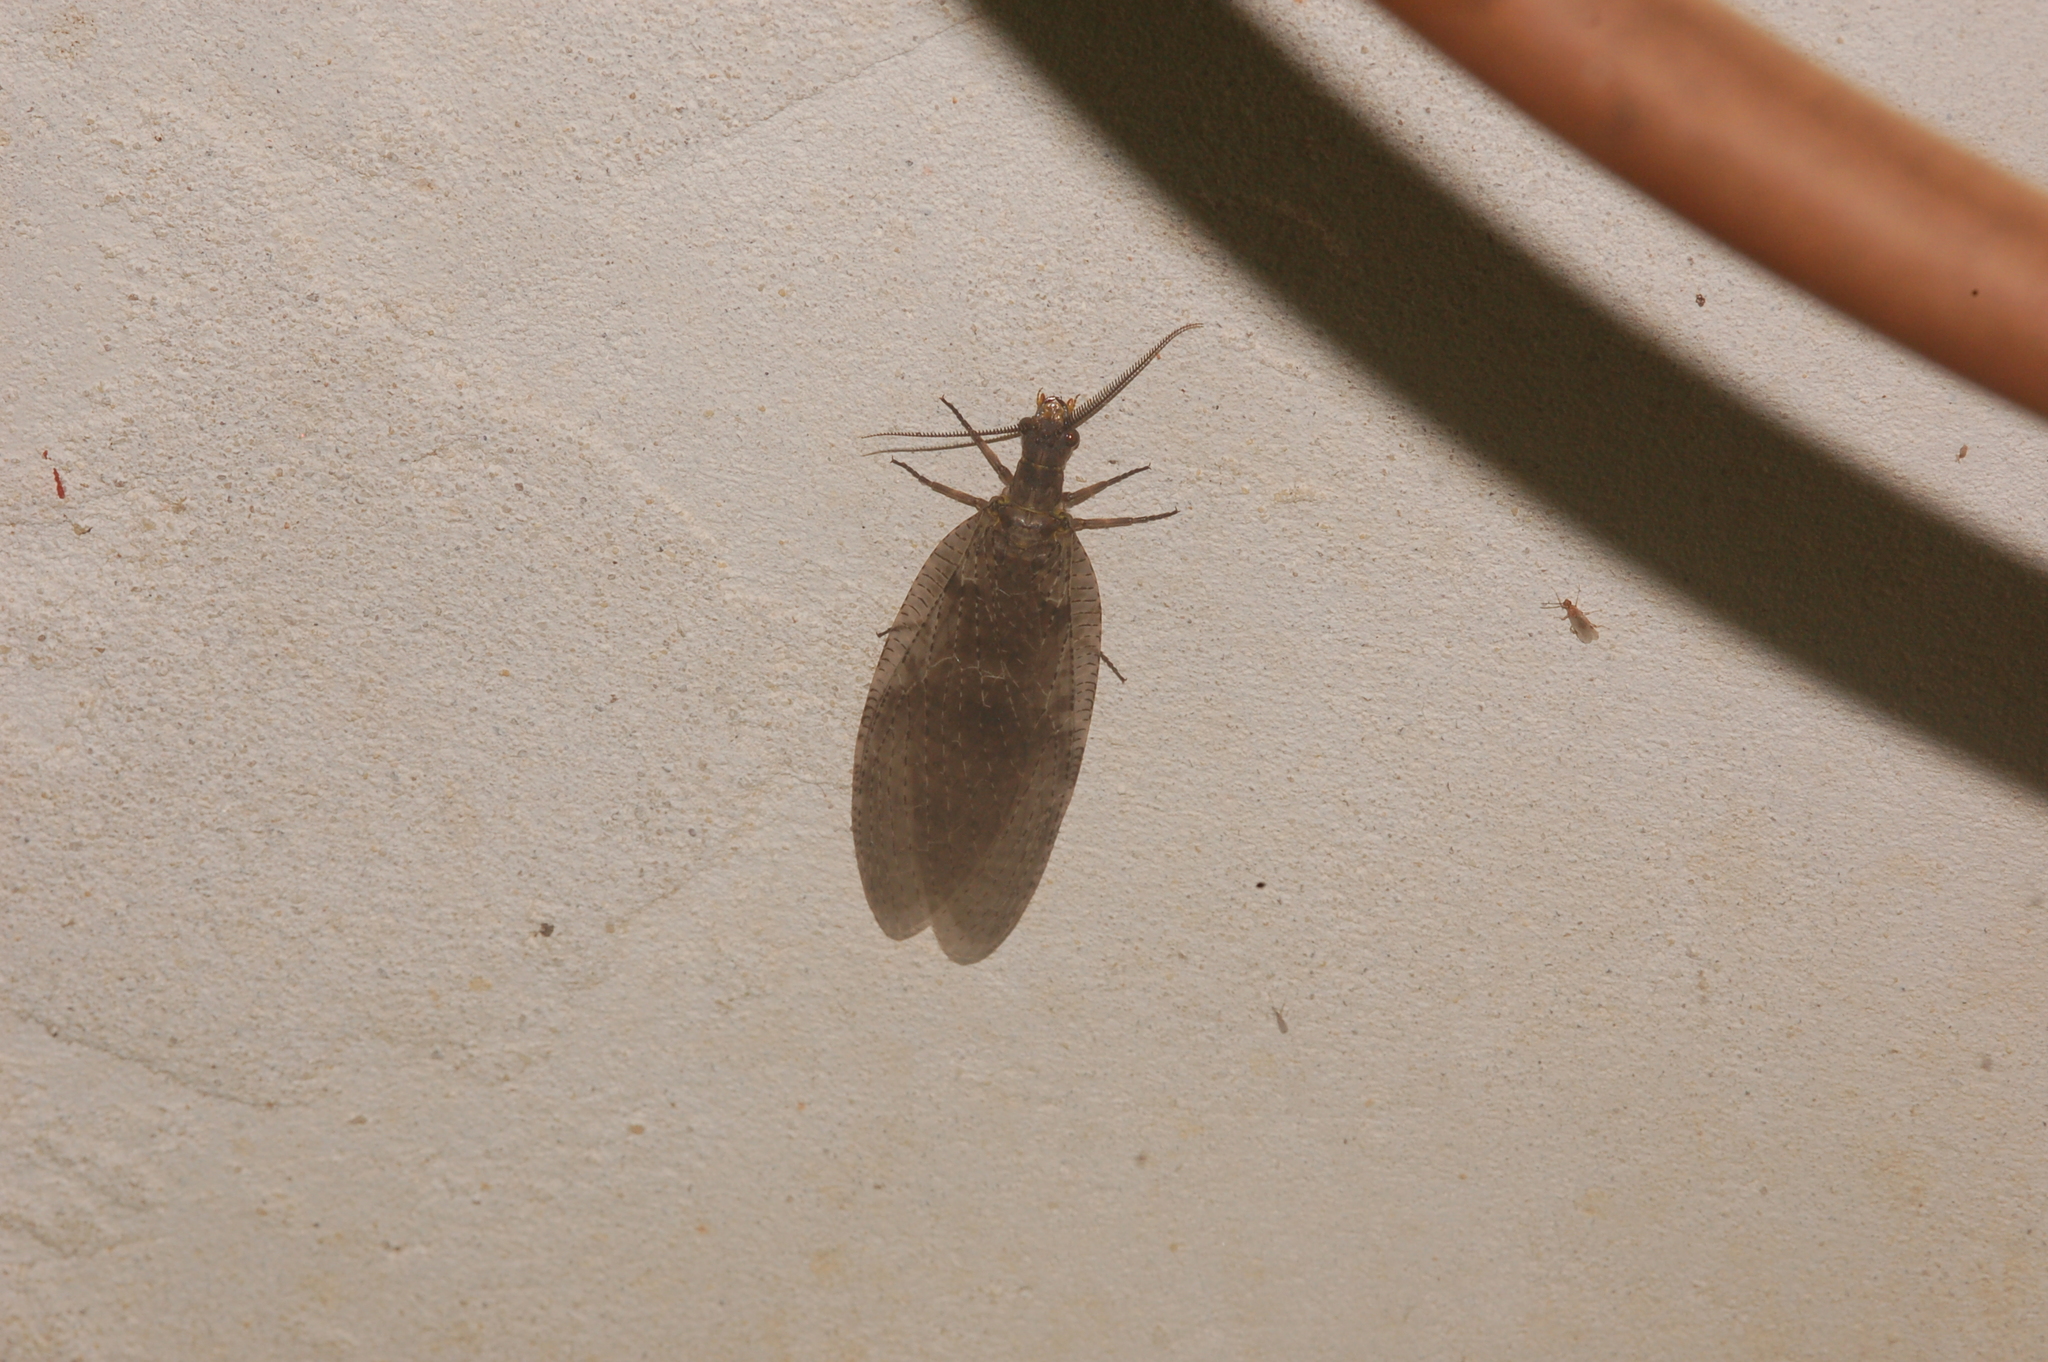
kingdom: Animalia
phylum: Arthropoda
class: Insecta
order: Megaloptera
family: Corydalidae
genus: Chauliodes
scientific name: Chauliodes pectinicornis
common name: Summer fishfly
